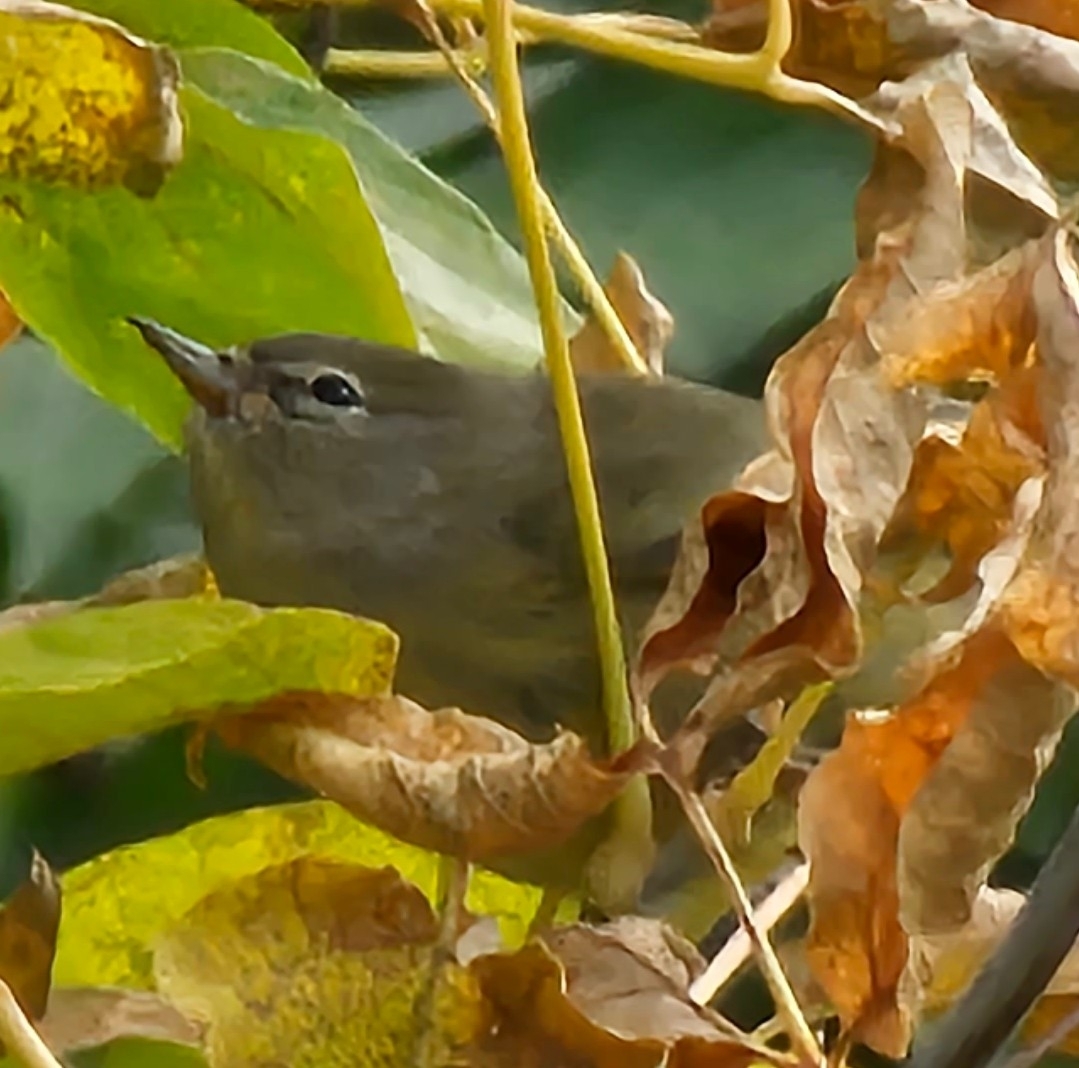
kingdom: Animalia
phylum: Chordata
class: Aves
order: Passeriformes
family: Parulidae
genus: Leiothlypis
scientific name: Leiothlypis celata
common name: Orange-crowned warbler
